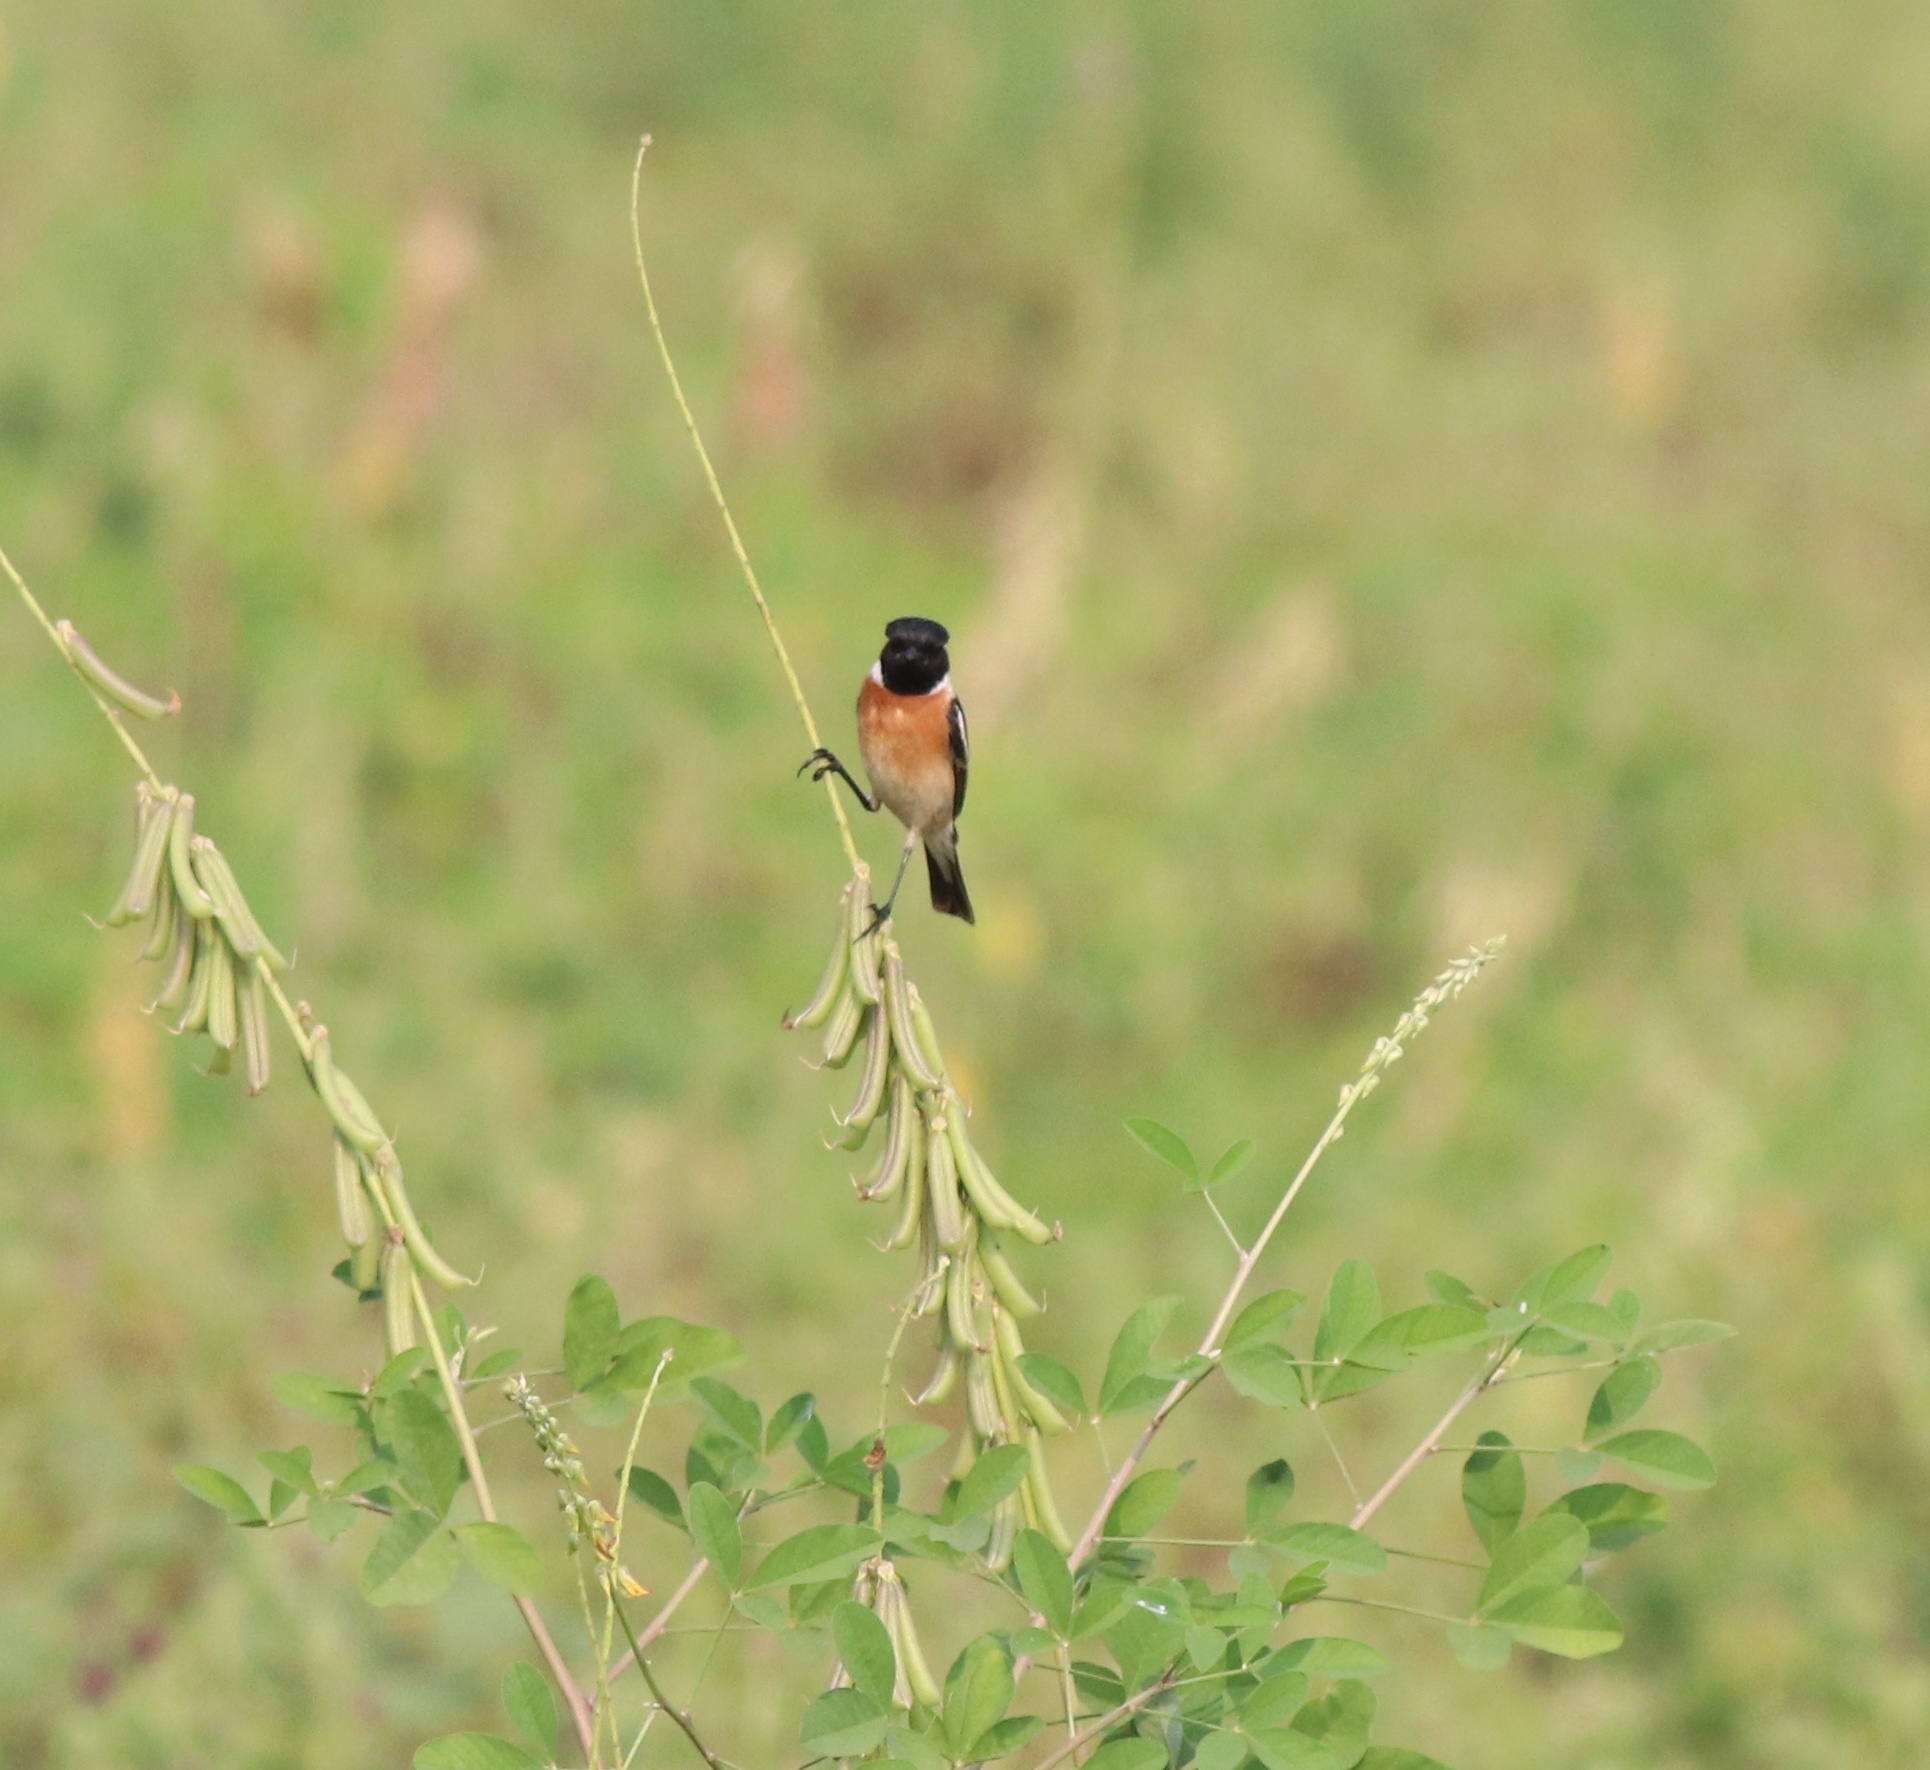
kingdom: Animalia
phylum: Chordata
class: Aves
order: Passeriformes
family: Muscicapidae
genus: Saxicola
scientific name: Saxicola maurus
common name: Siberian stonechat
